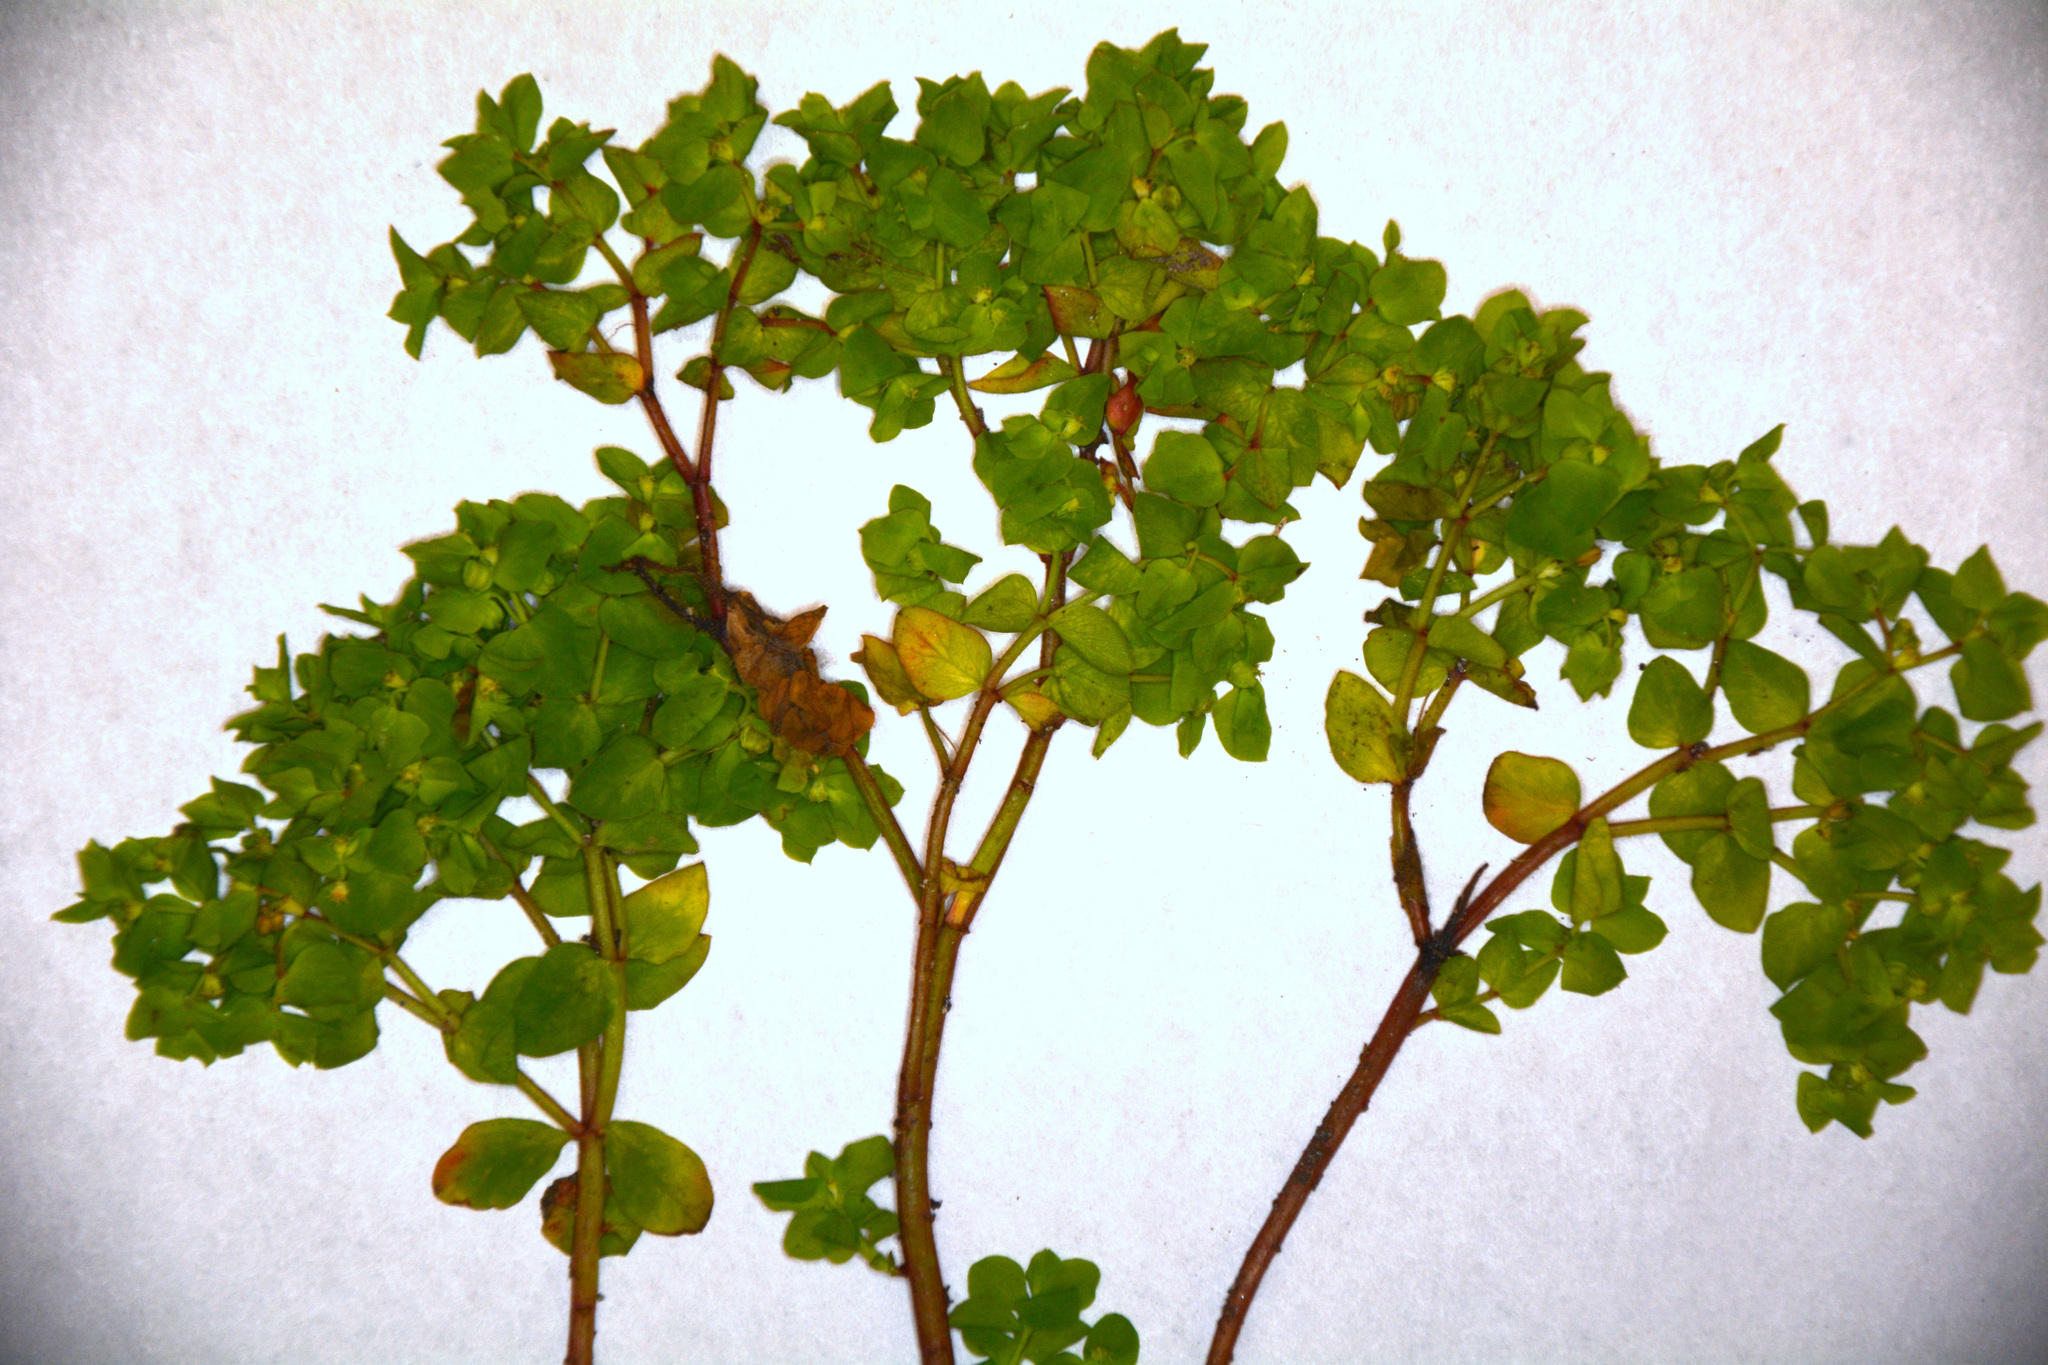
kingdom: Plantae
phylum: Tracheophyta
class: Magnoliopsida
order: Malpighiales
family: Euphorbiaceae
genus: Euphorbia
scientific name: Euphorbia peplus
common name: Petty spurge
